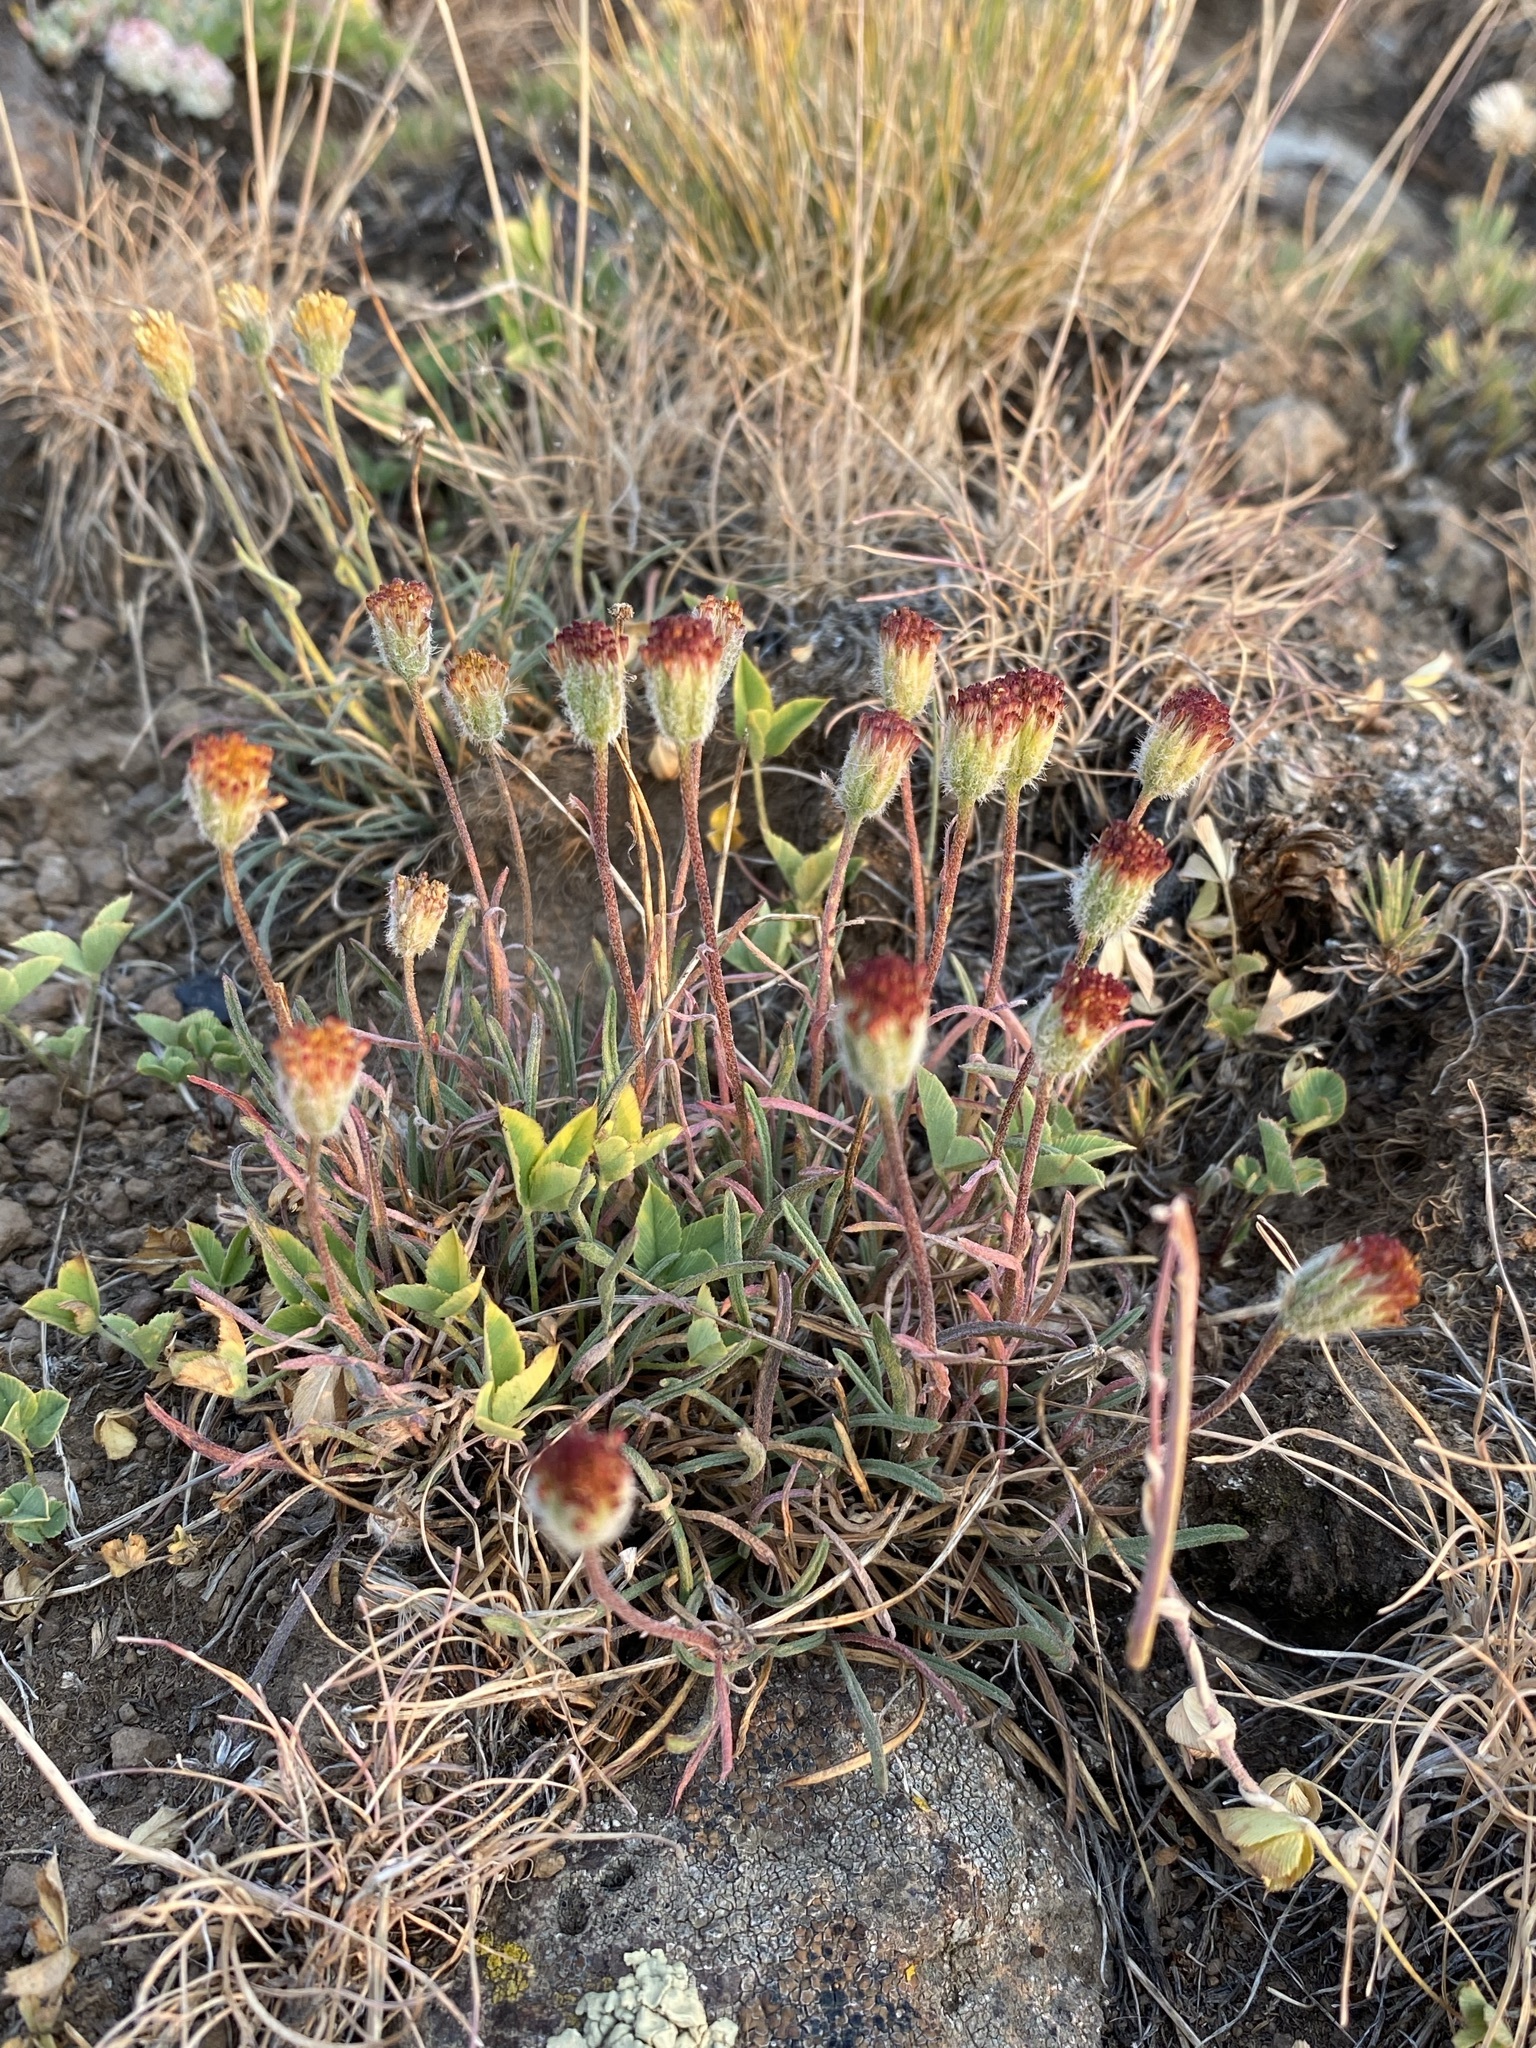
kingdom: Plantae
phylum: Tracheophyta
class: Magnoliopsida
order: Asterales
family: Asteraceae
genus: Erigeron
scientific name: Erigeron bloomeri
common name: Bloomer's fleabane
